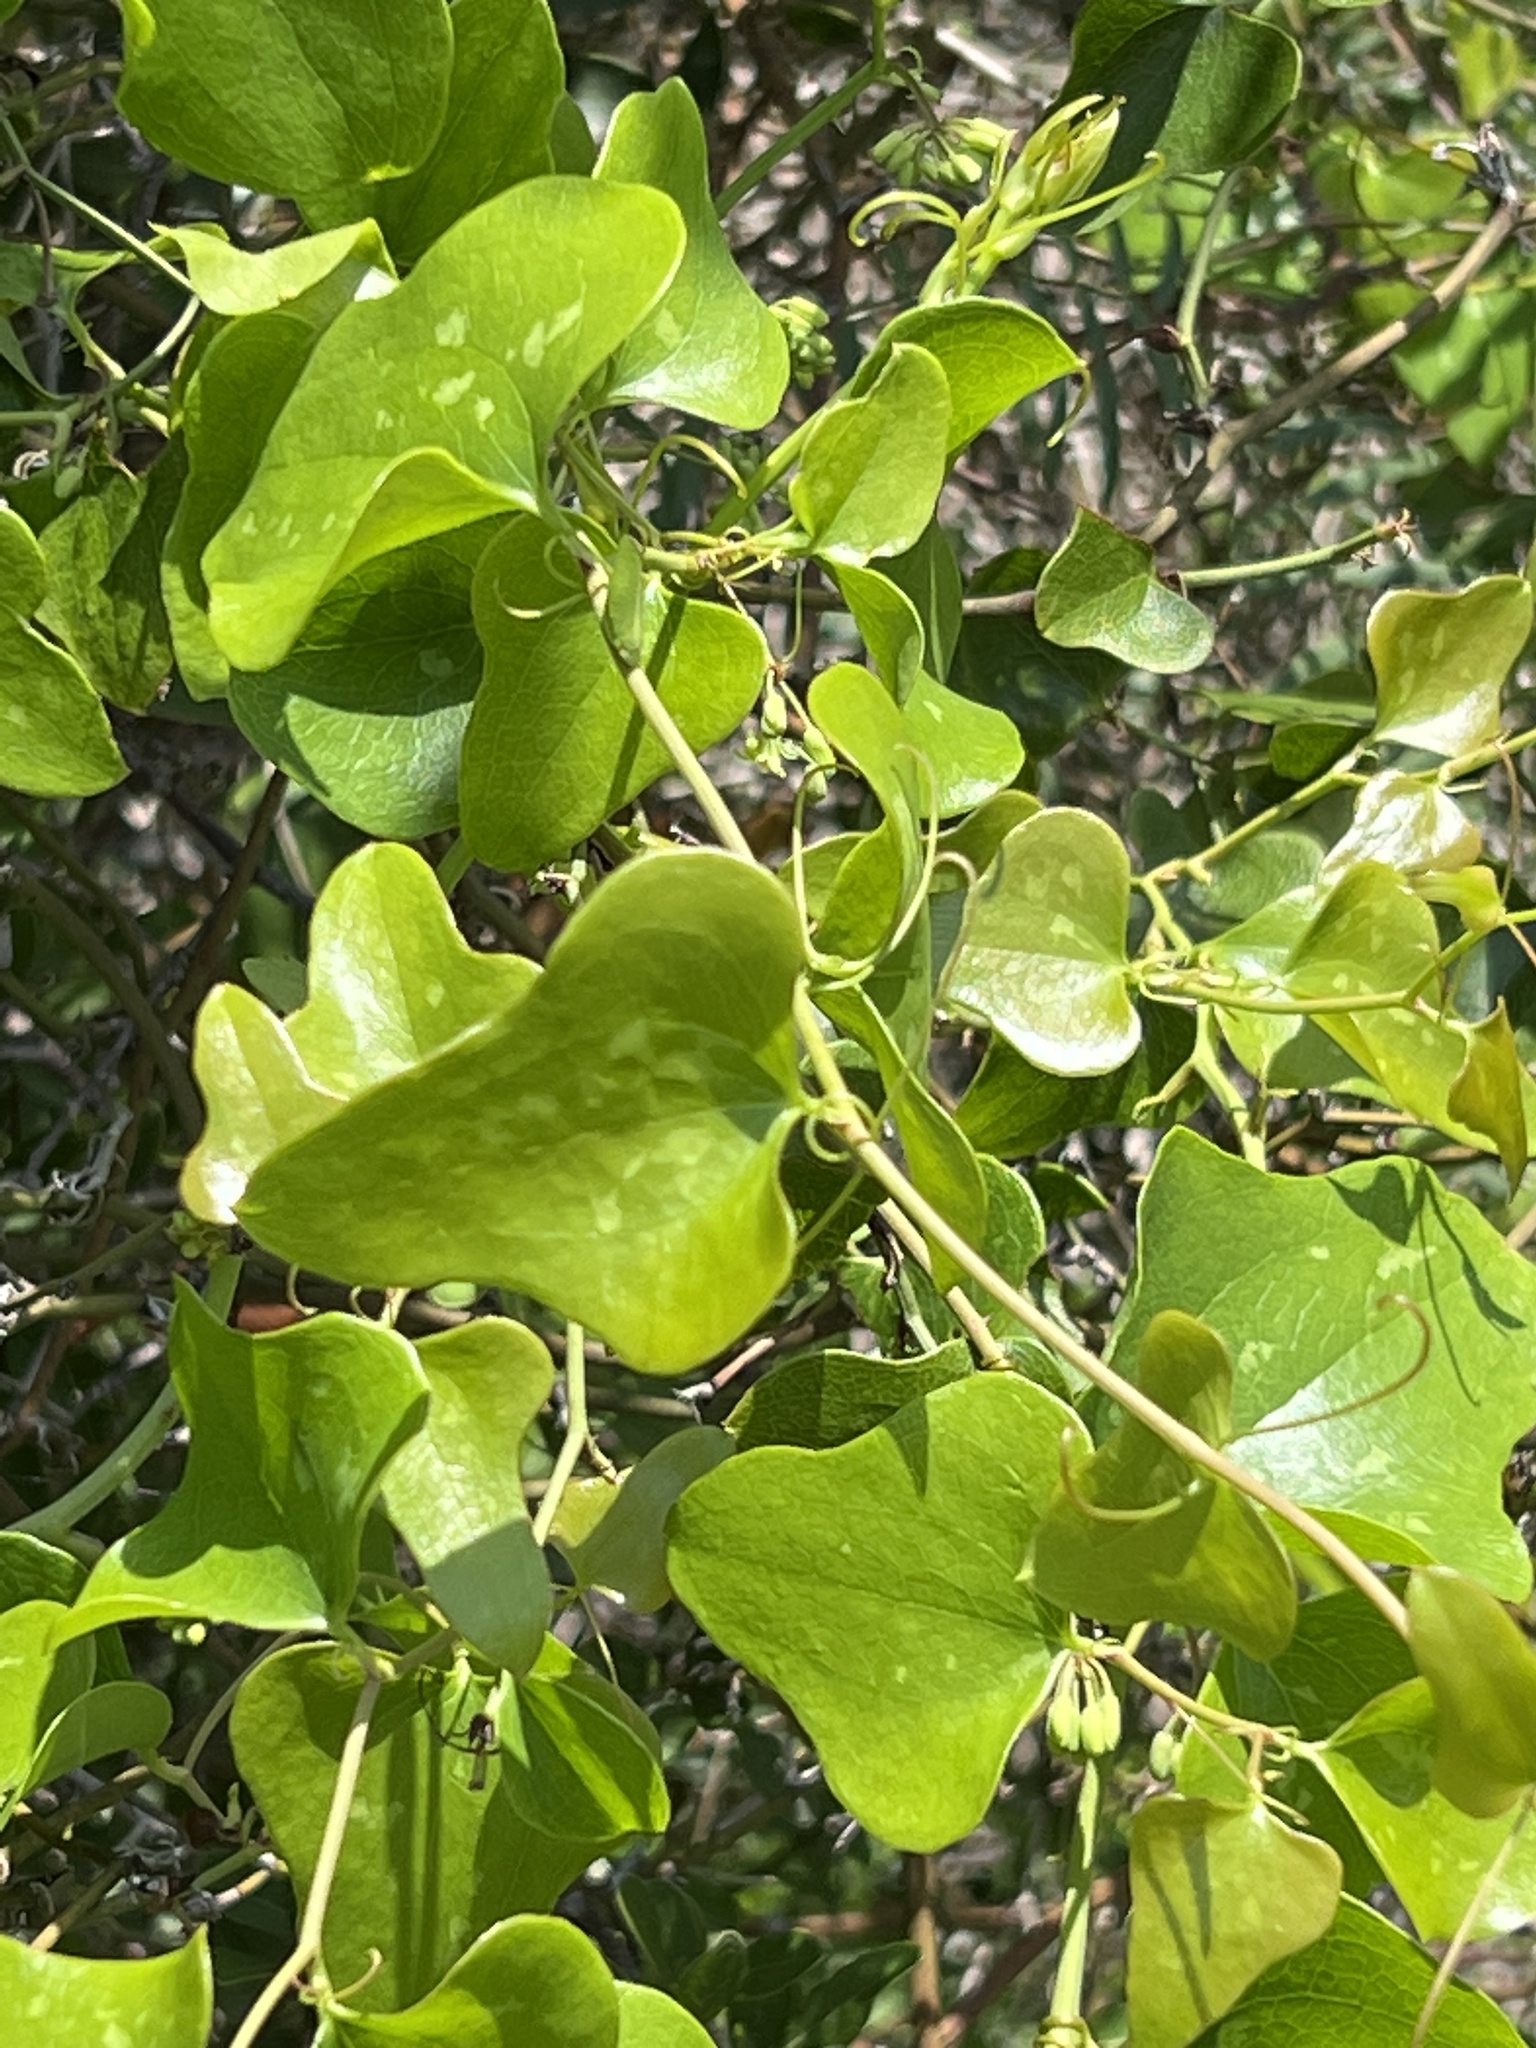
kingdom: Plantae
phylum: Tracheophyta
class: Liliopsida
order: Liliales
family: Smilacaceae
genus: Smilax
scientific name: Smilax bona-nox
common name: Catbrier
